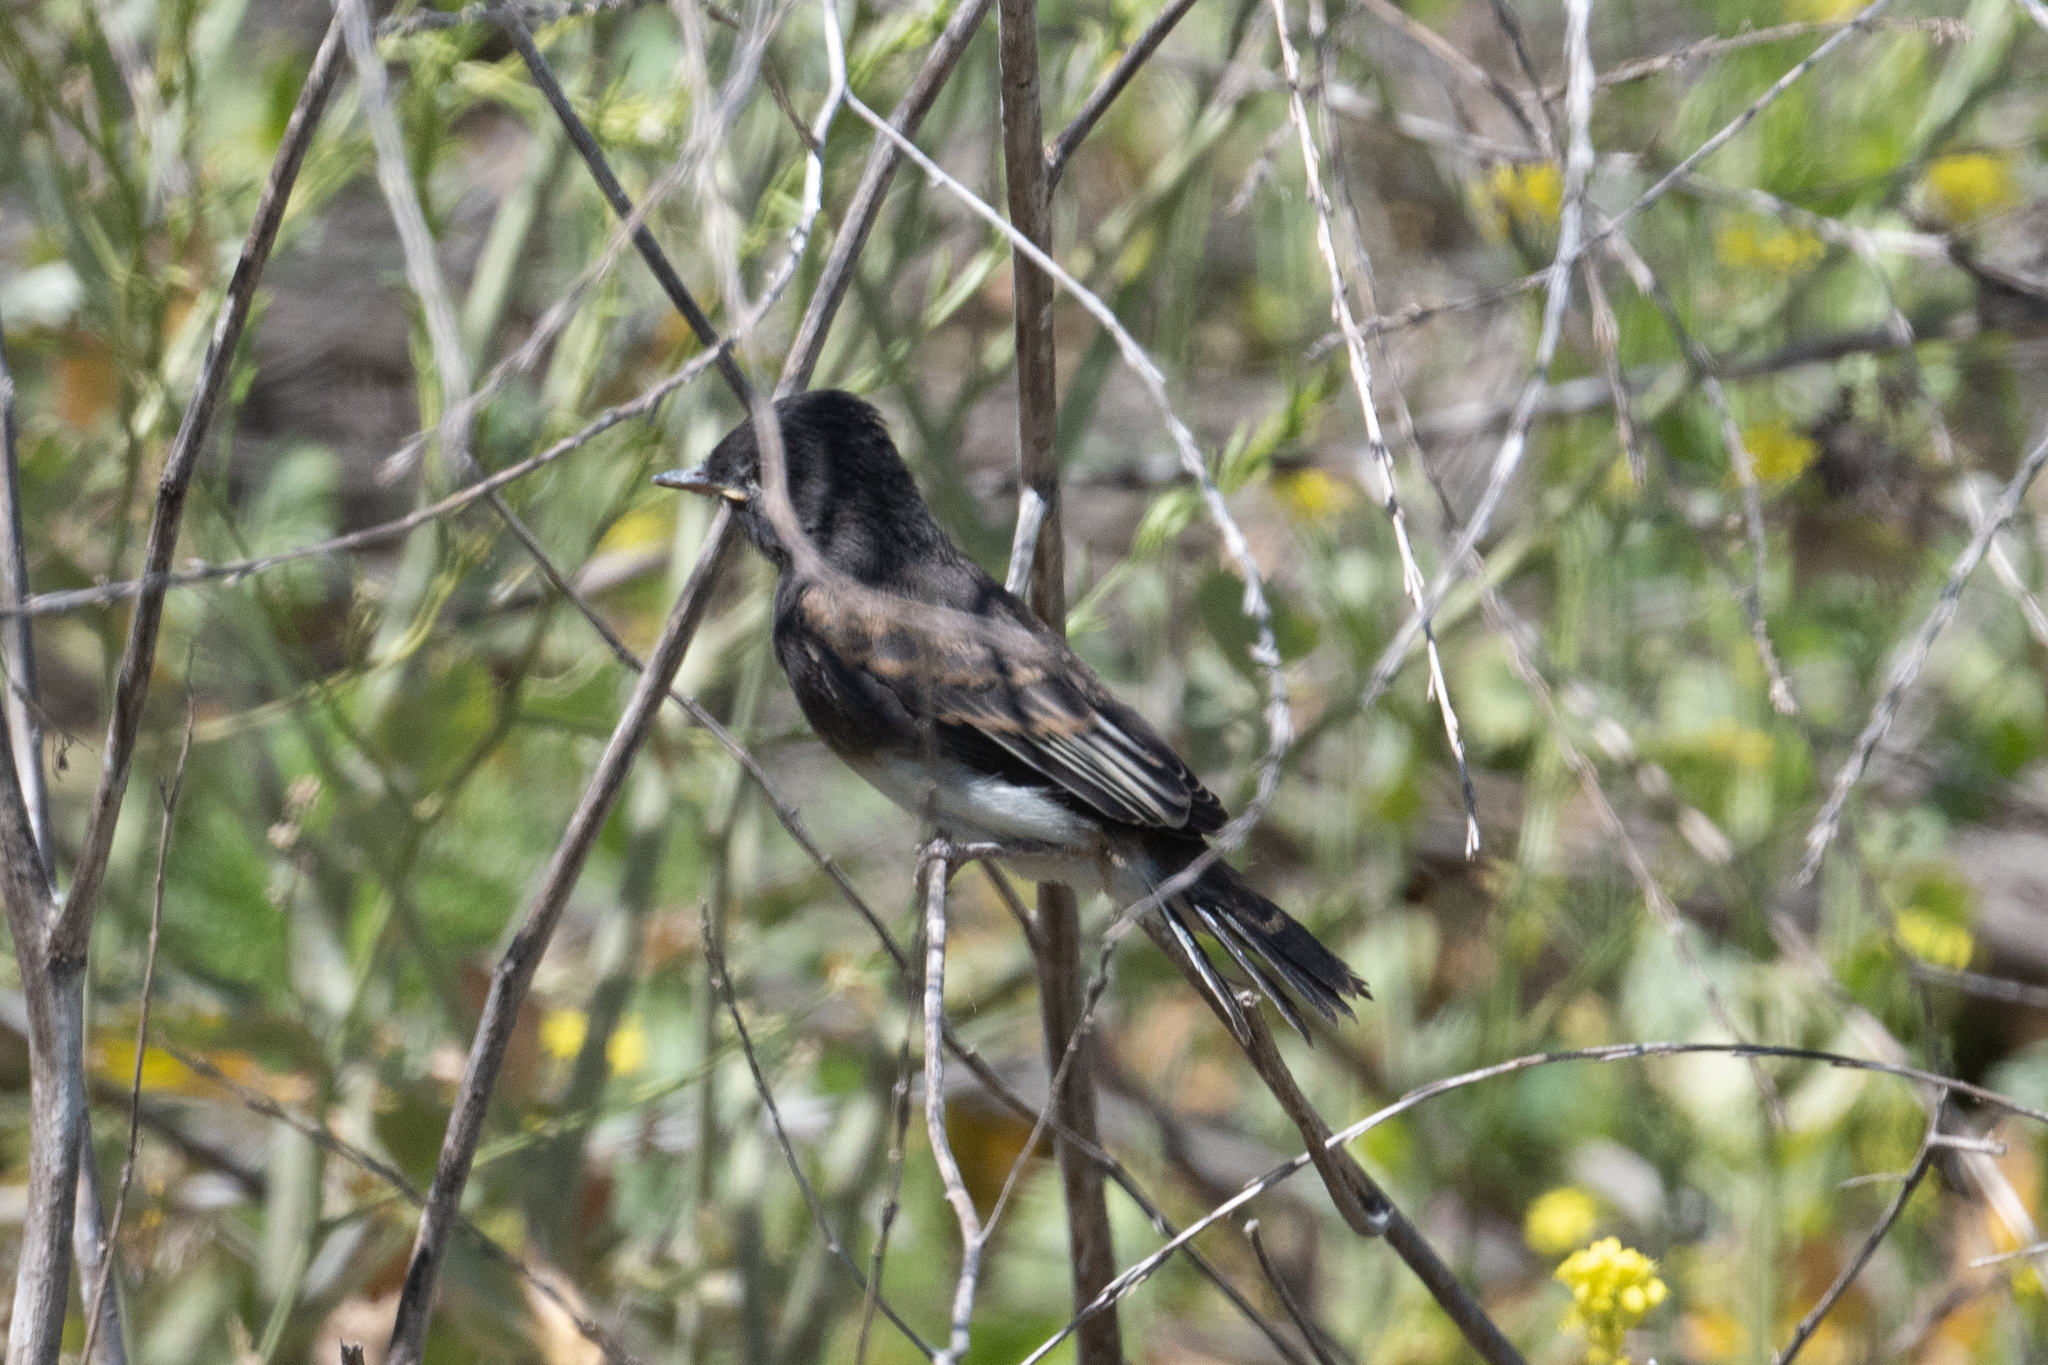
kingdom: Animalia
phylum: Chordata
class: Aves
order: Passeriformes
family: Tyrannidae
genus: Sayornis
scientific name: Sayornis nigricans
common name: Black phoebe
